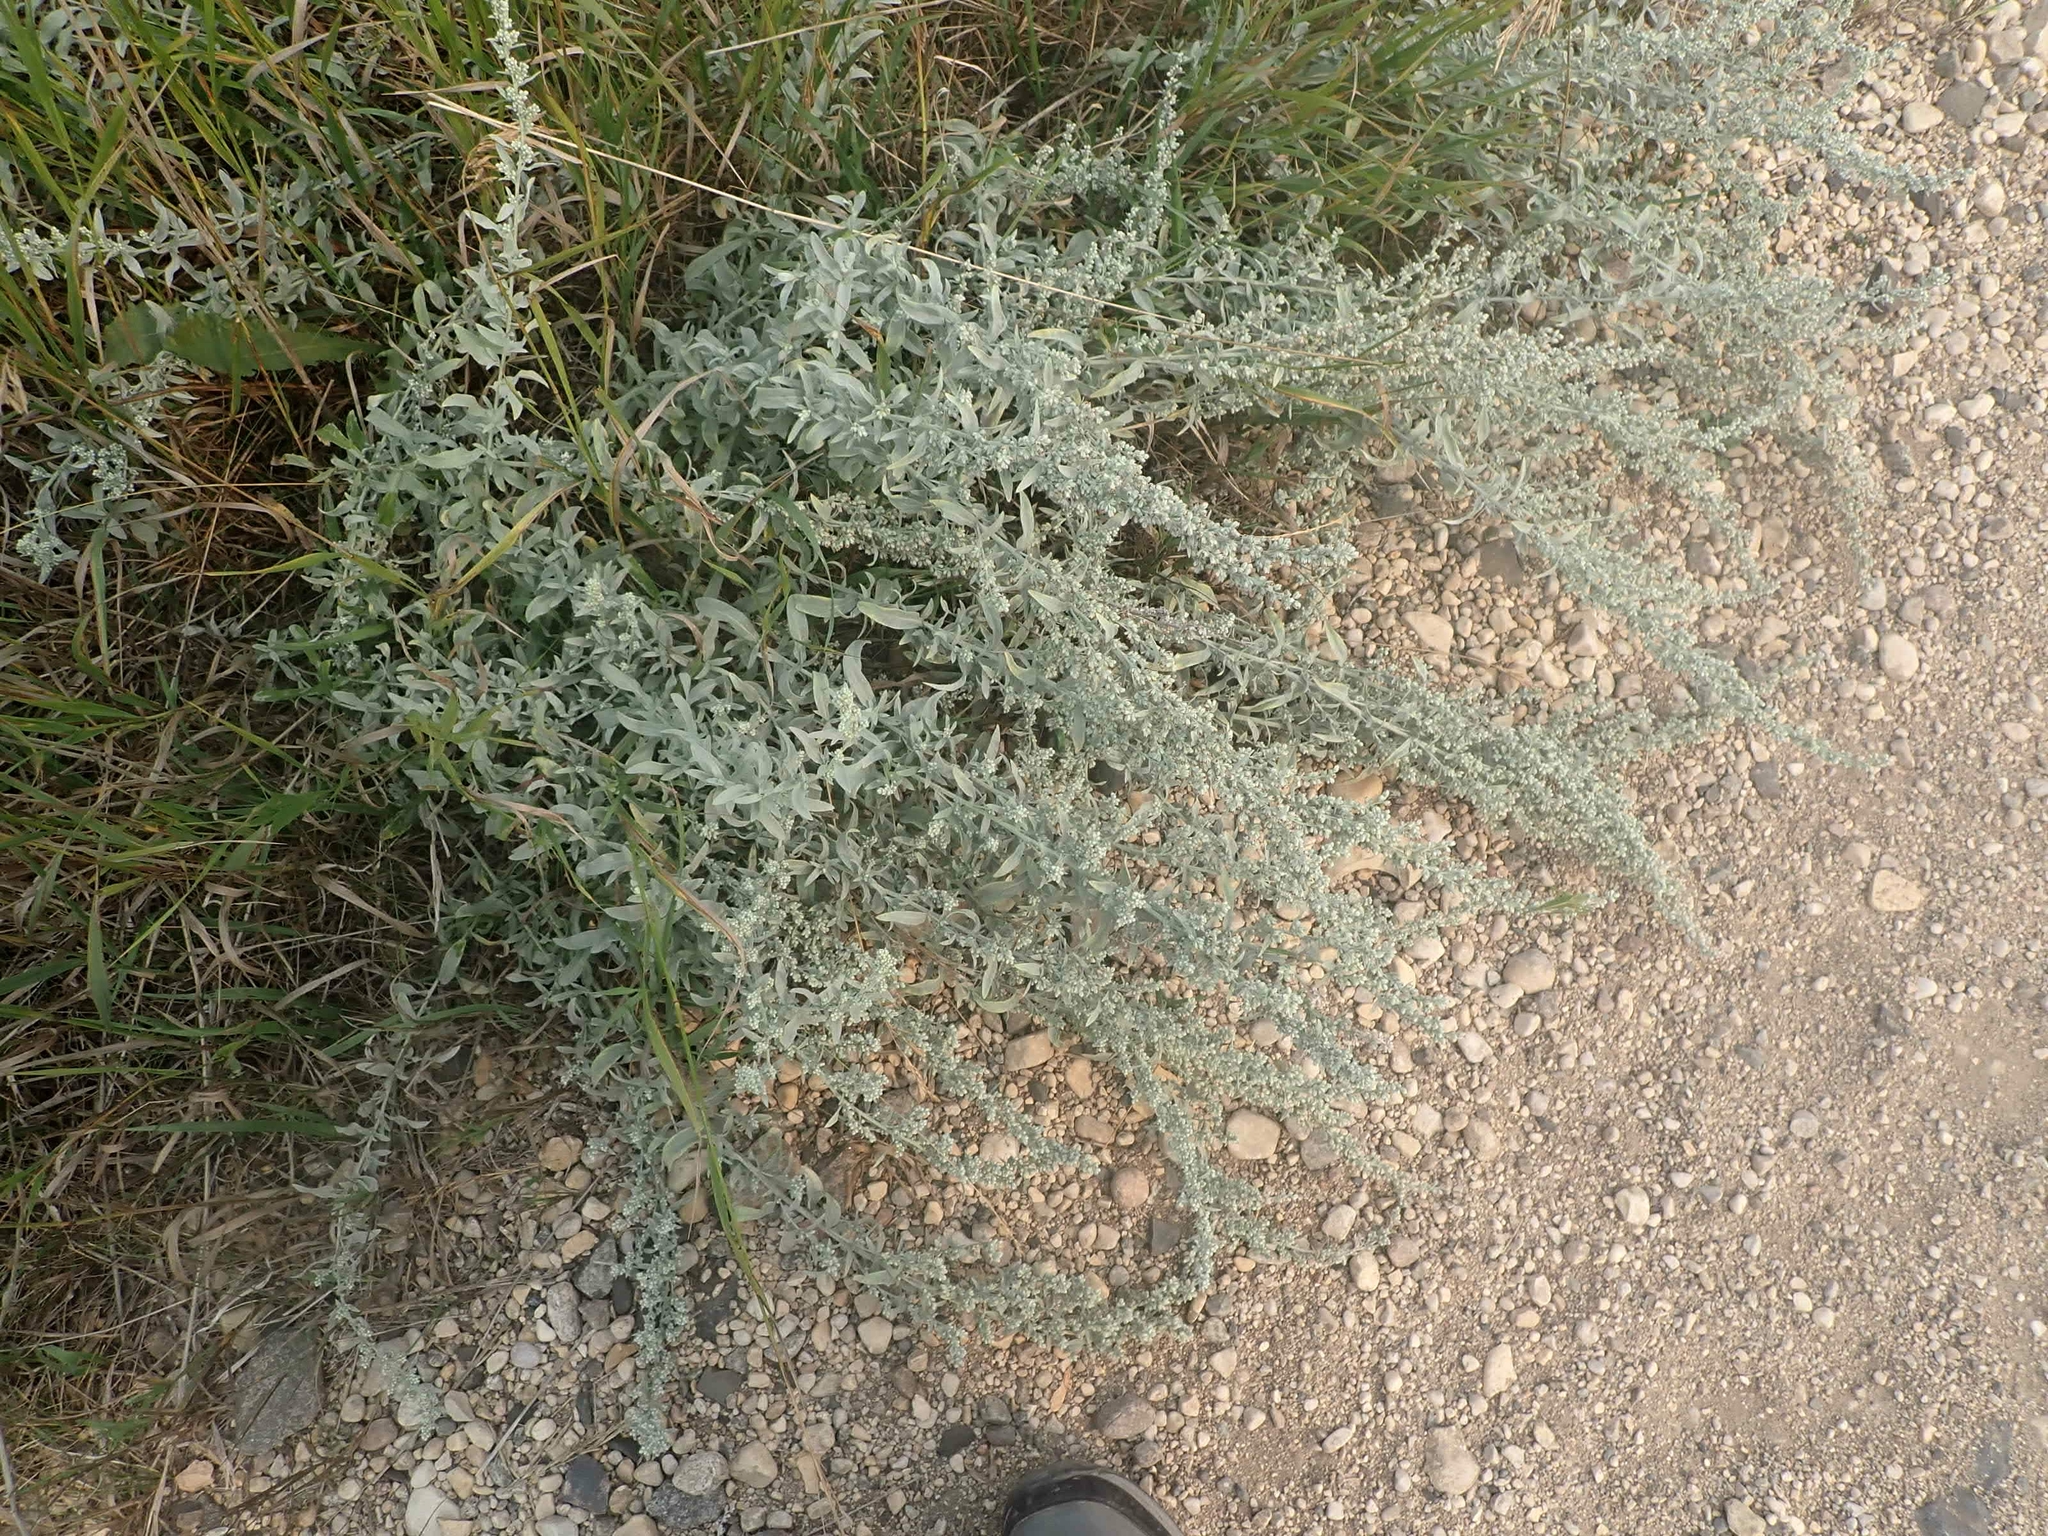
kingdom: Plantae
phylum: Tracheophyta
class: Magnoliopsida
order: Asterales
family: Asteraceae
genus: Artemisia
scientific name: Artemisia ludoviciana
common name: Western mugwort
